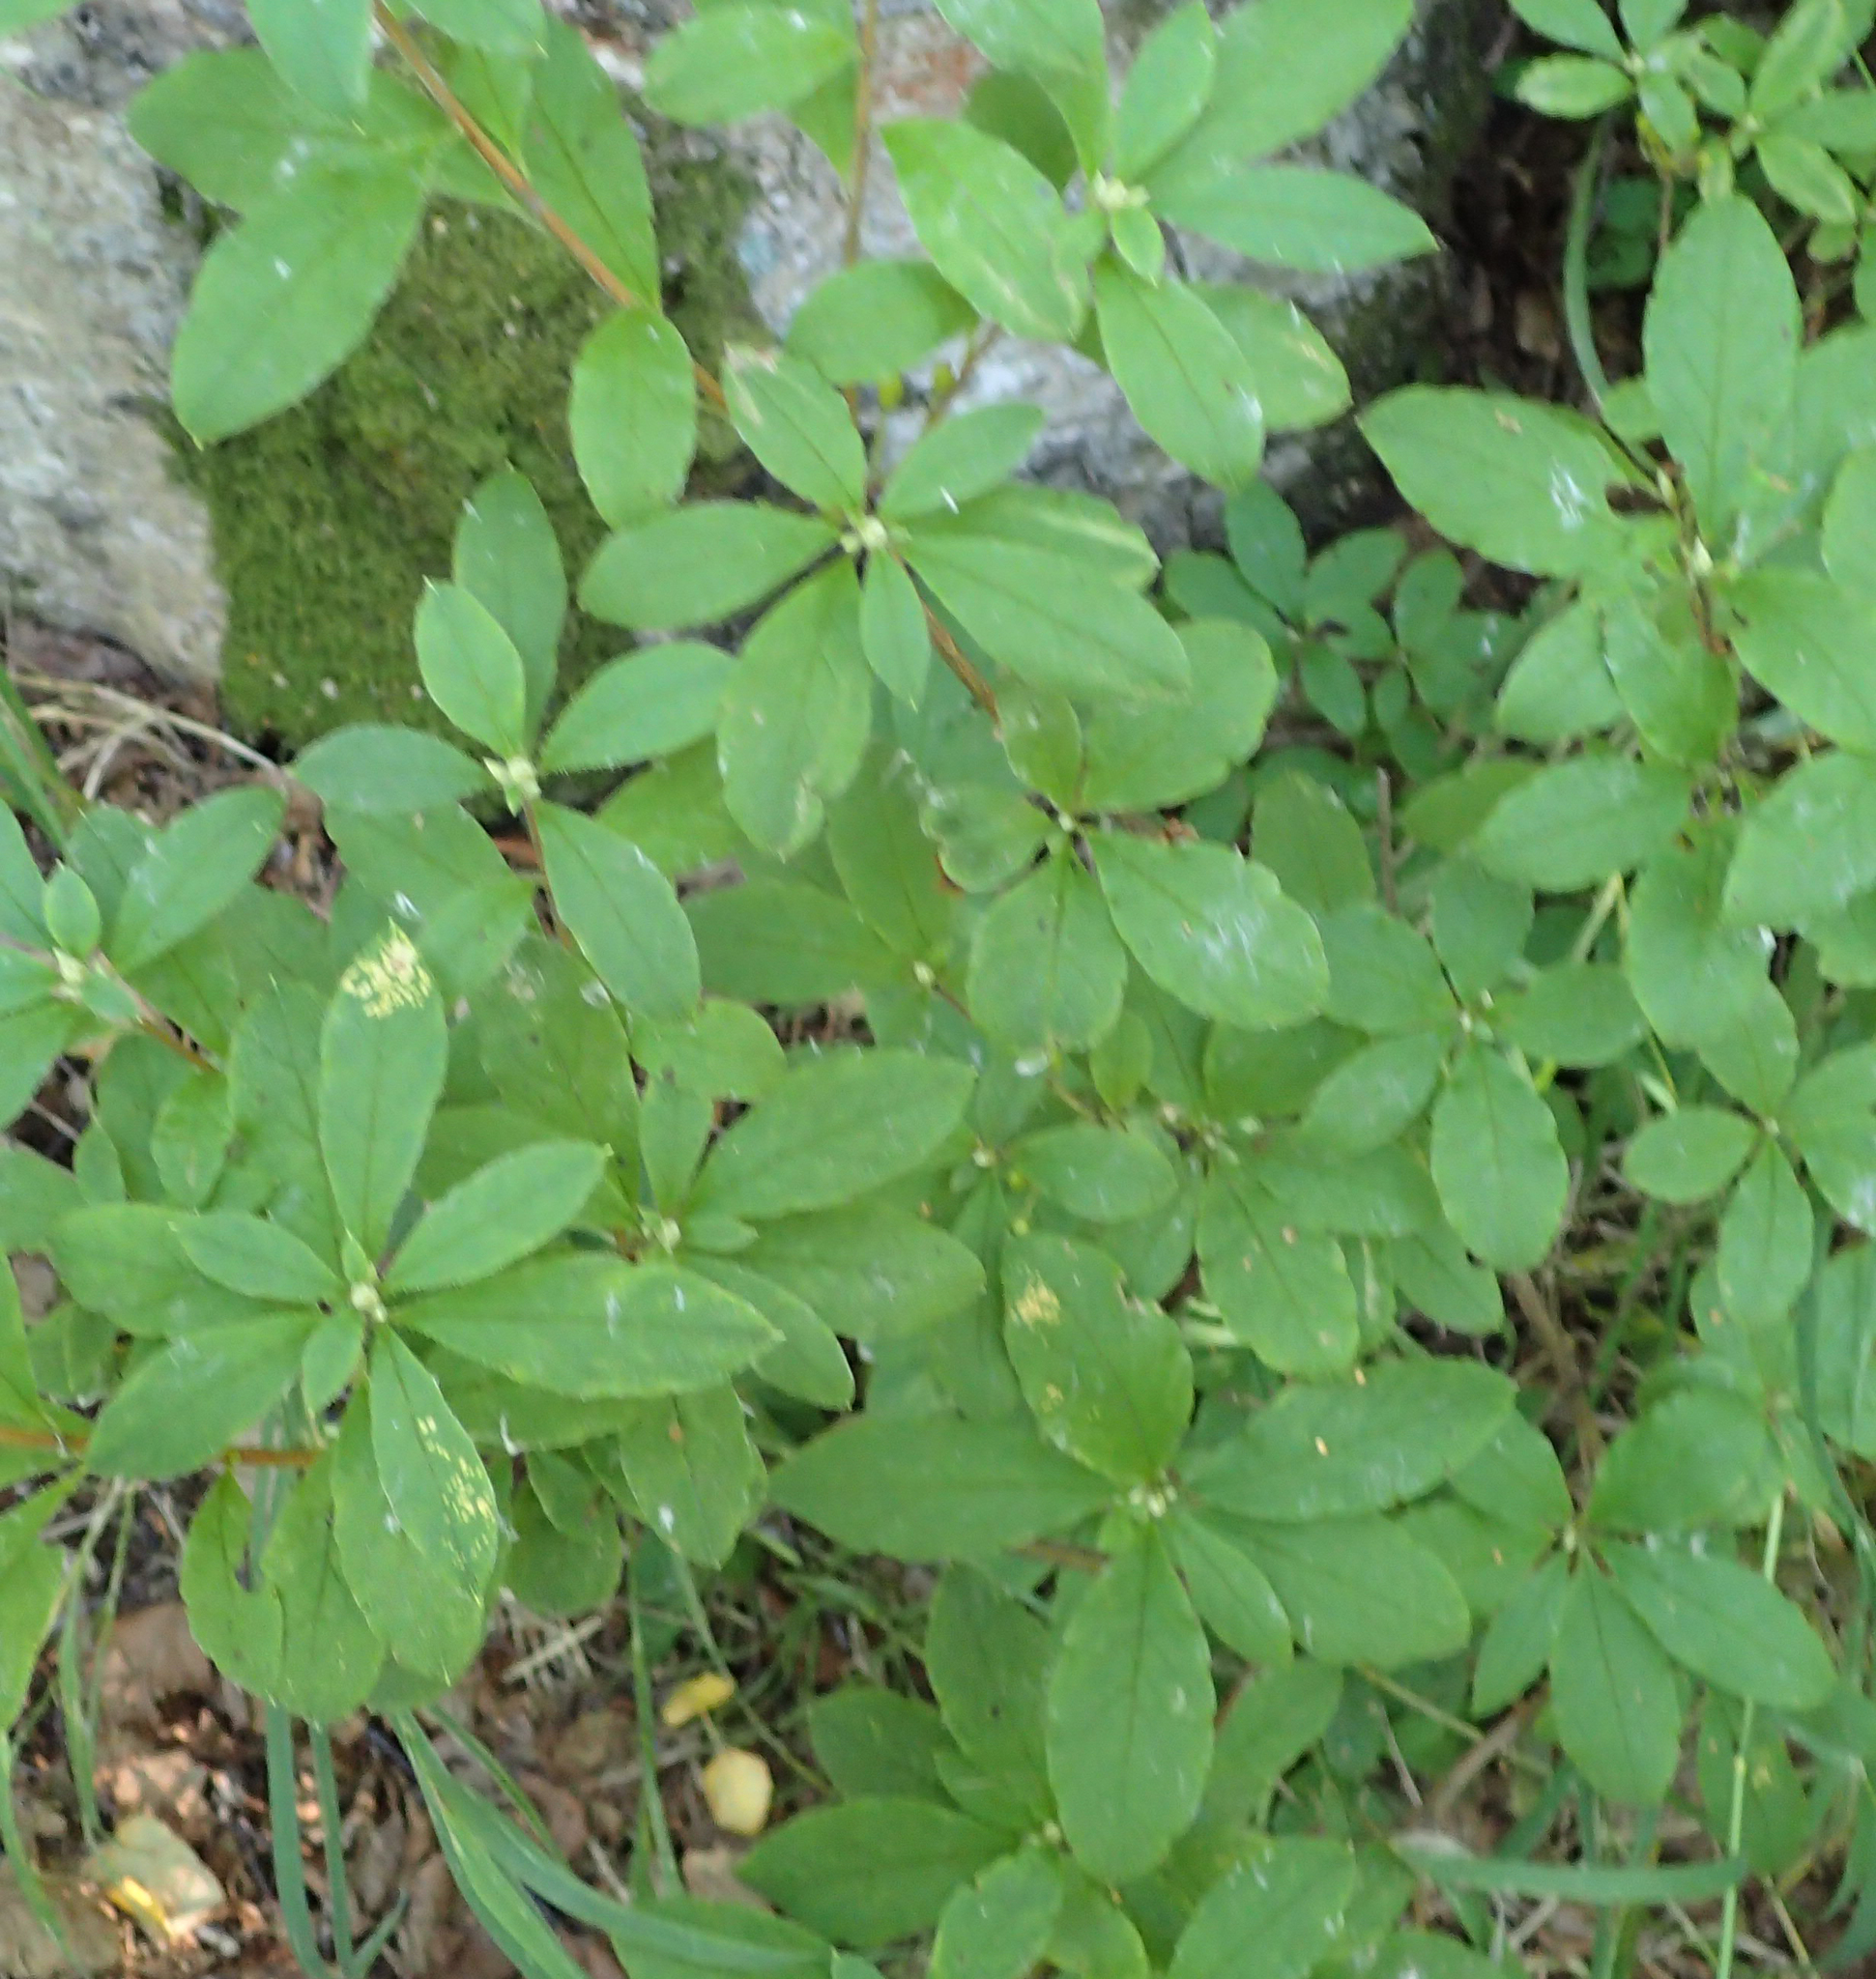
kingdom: Plantae
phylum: Tracheophyta
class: Magnoliopsida
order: Ericales
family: Ericaceae
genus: Rhododendron
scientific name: Rhododendron menziesii
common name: Pacific menziesia
